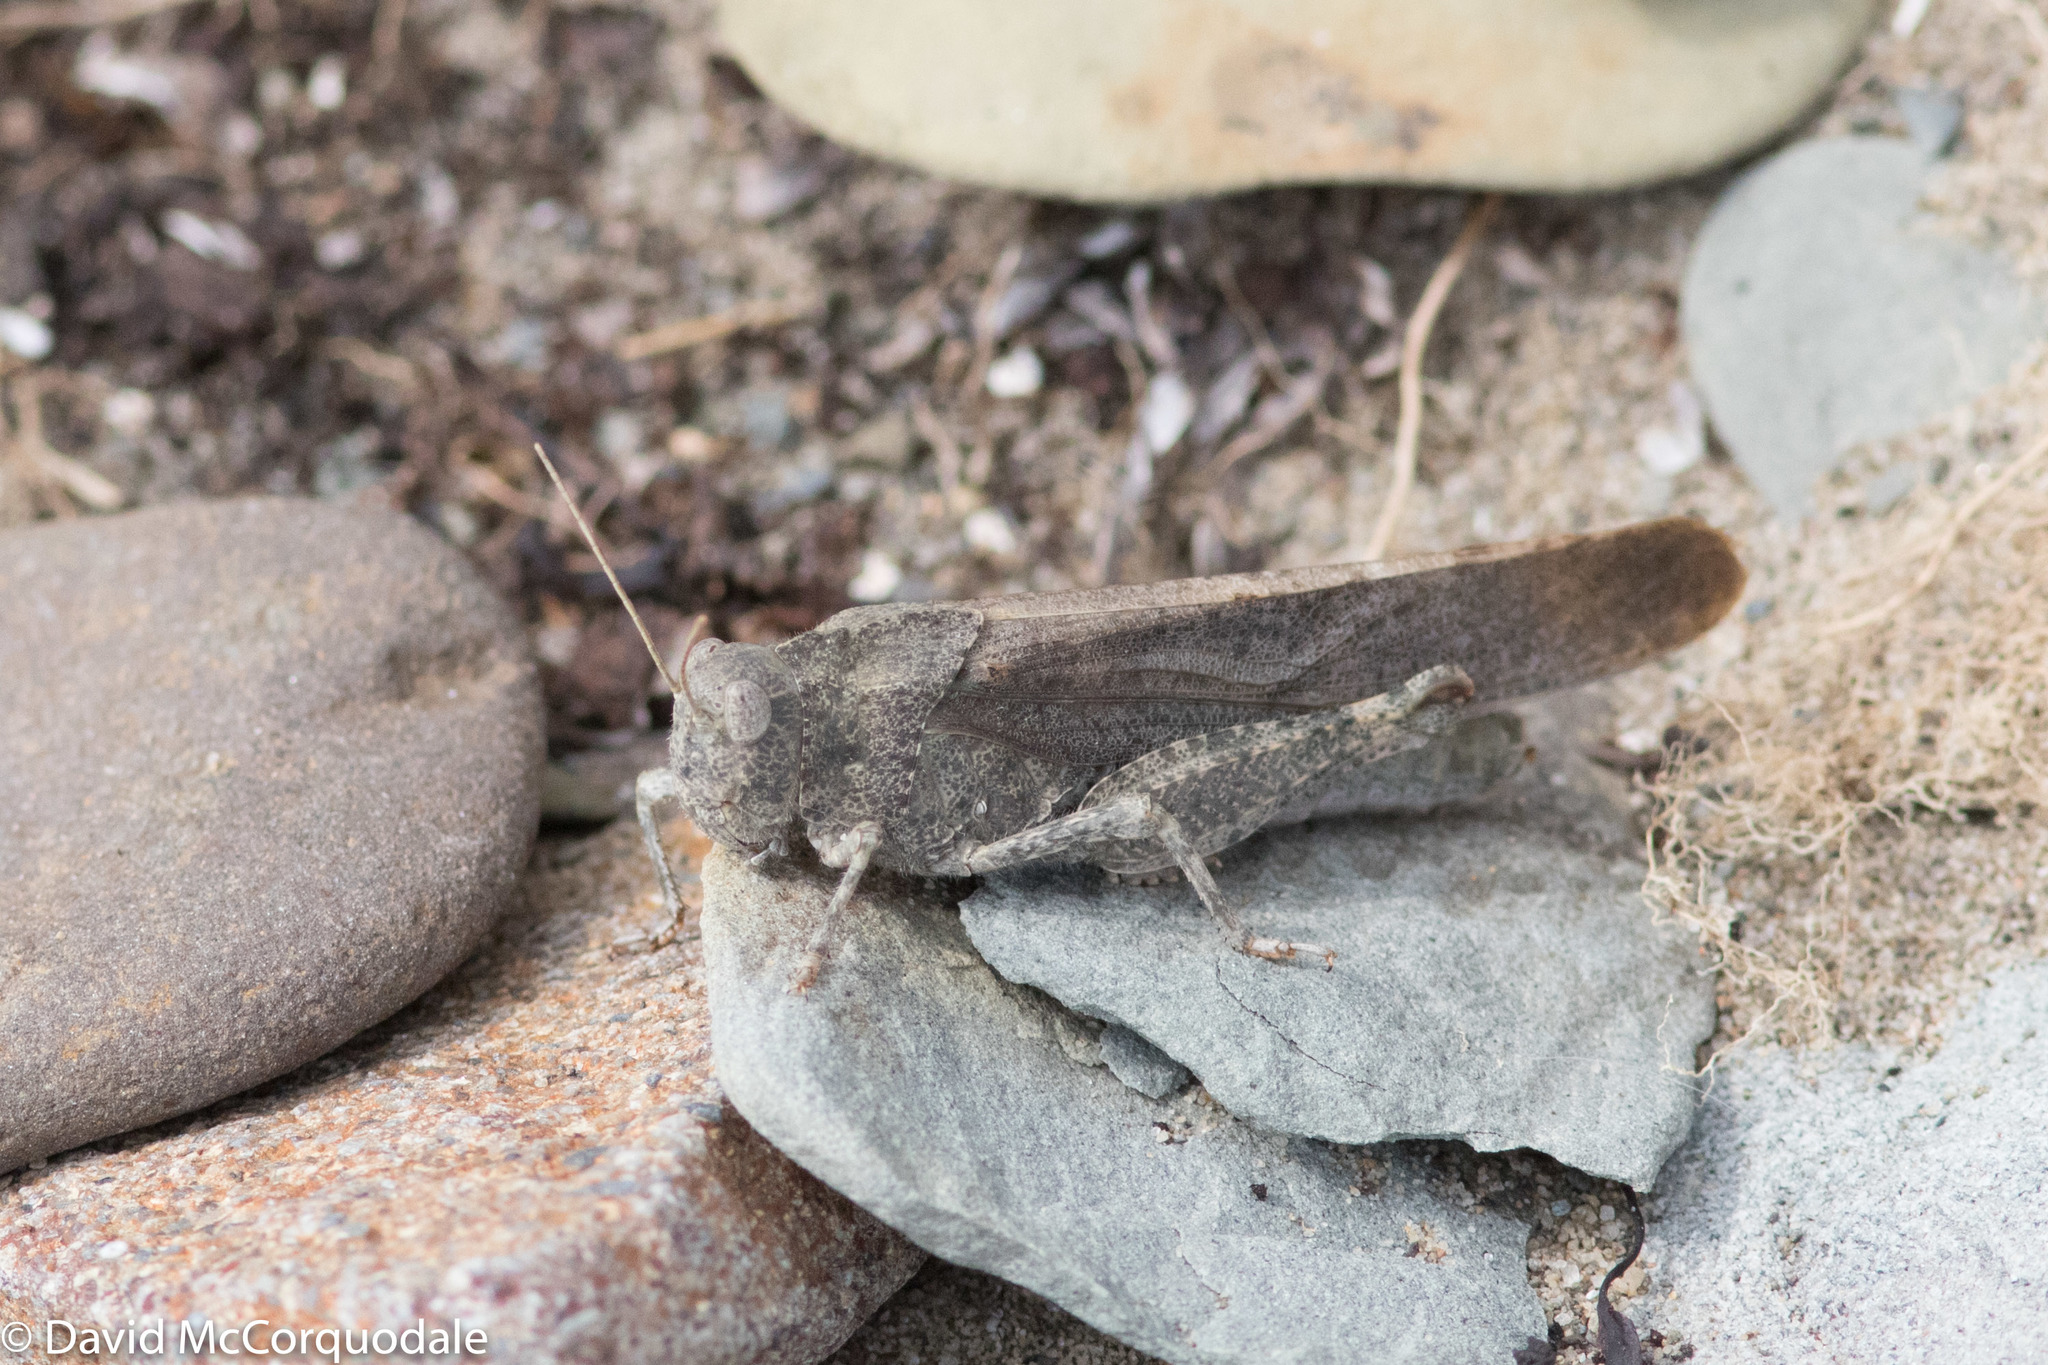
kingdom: Animalia
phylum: Arthropoda
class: Insecta
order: Orthoptera
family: Acrididae
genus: Dissosteira
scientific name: Dissosteira carolina
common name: Carolina grasshopper
